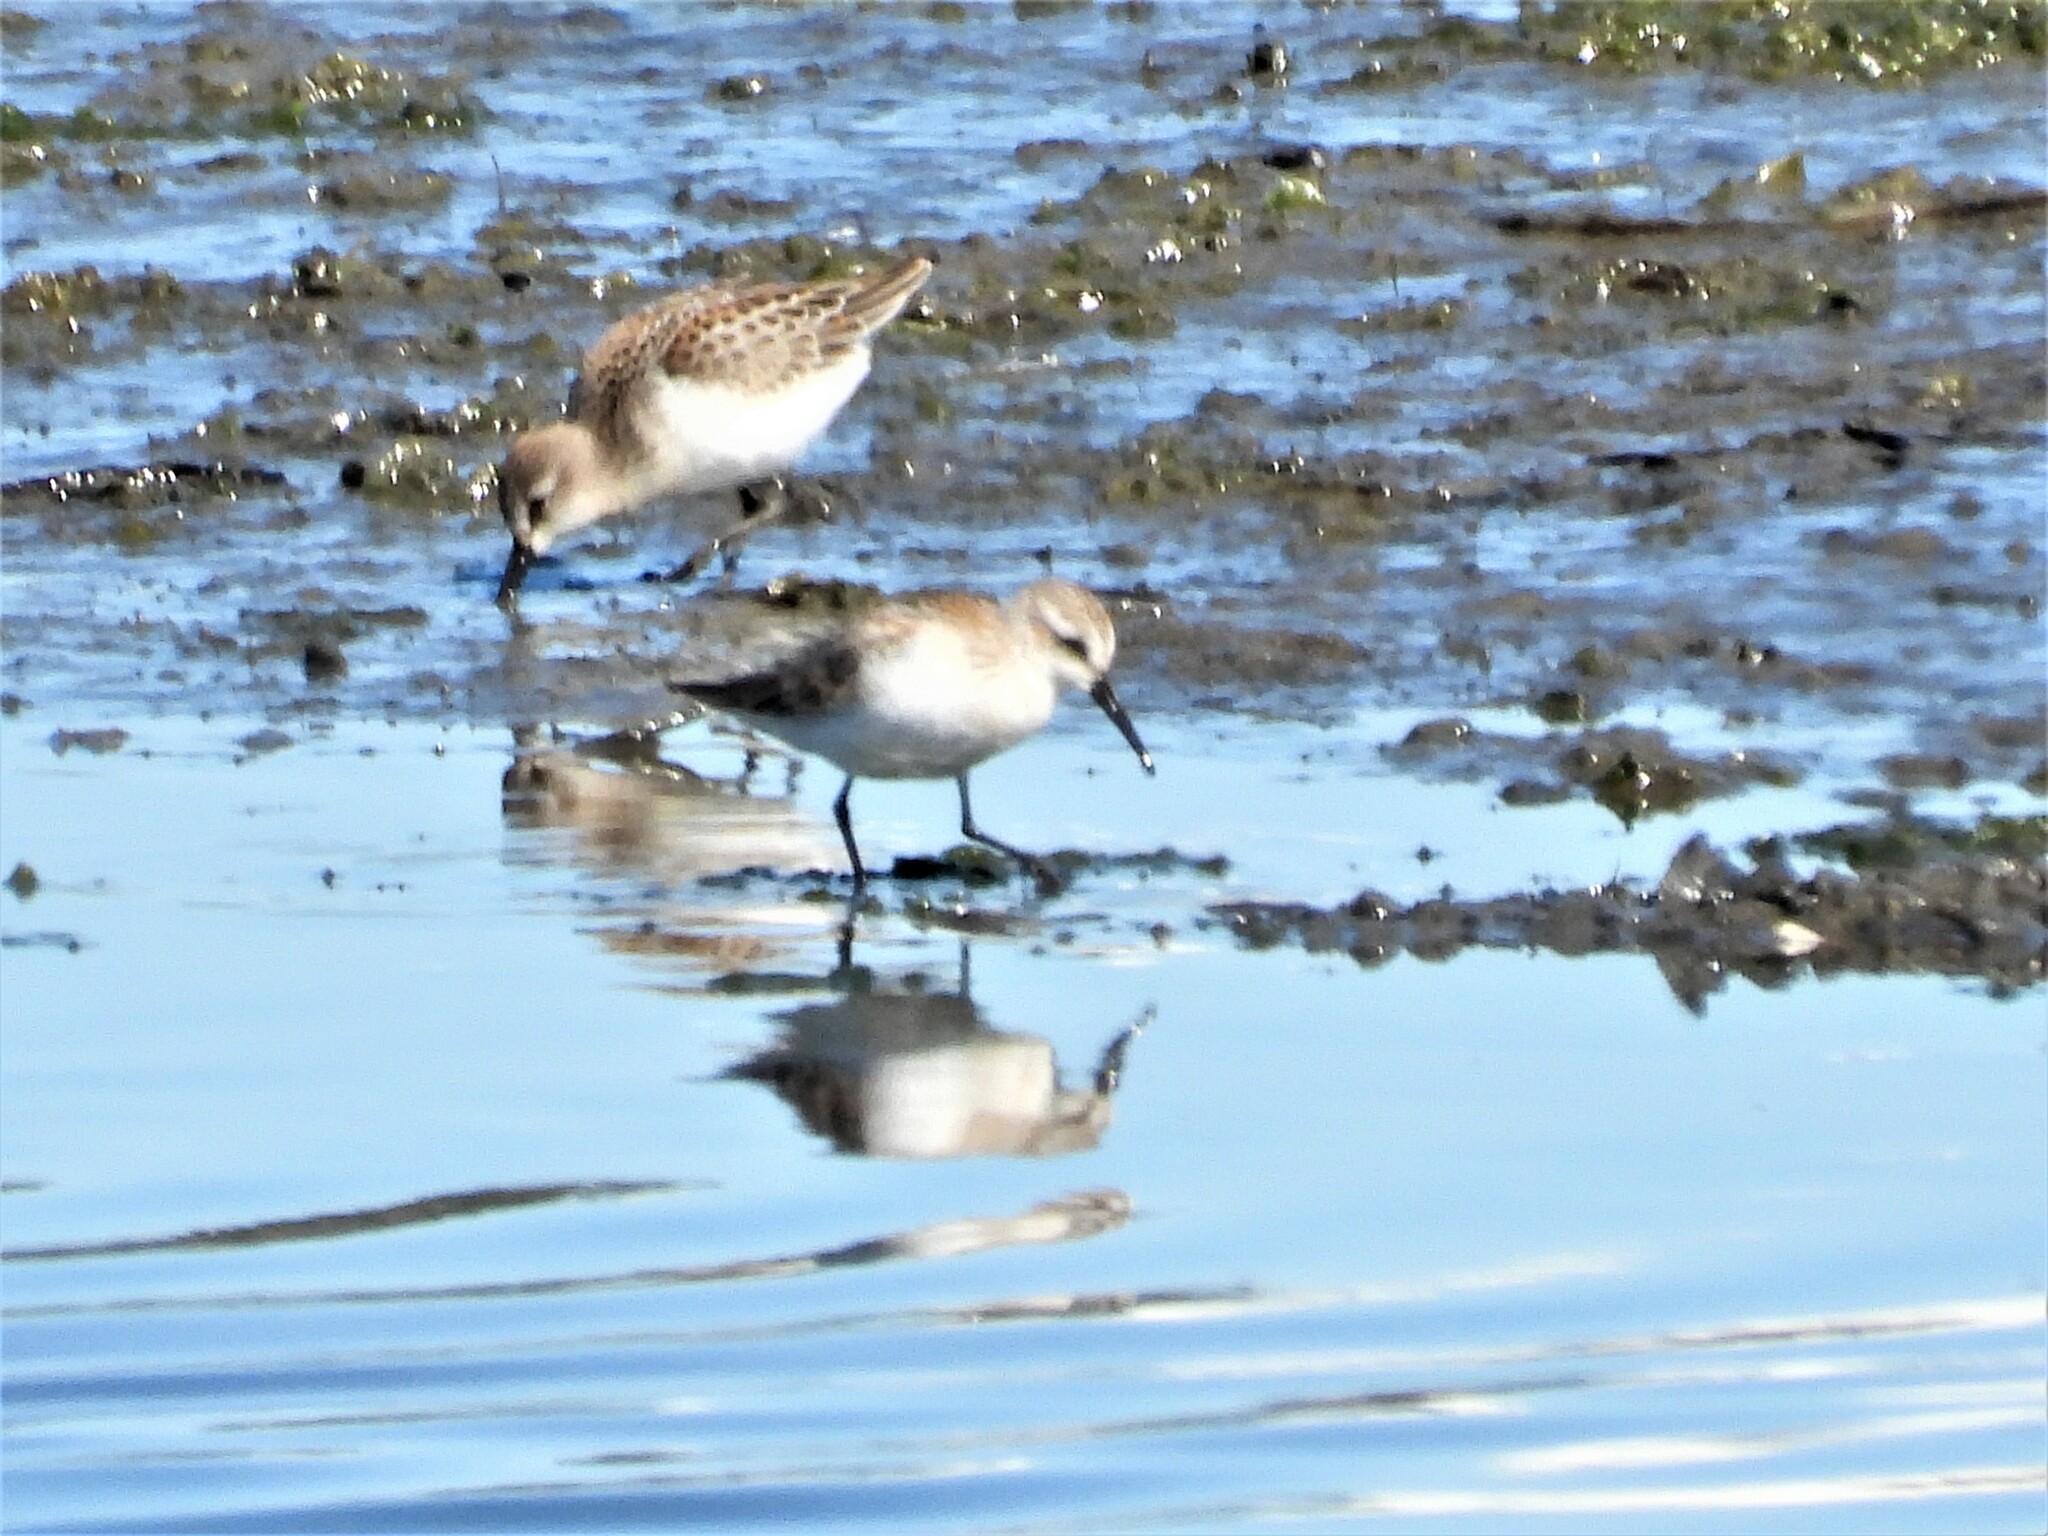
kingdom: Animalia
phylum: Chordata
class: Aves
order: Charadriiformes
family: Scolopacidae
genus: Calidris
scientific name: Calidris mauri
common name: Western sandpiper
